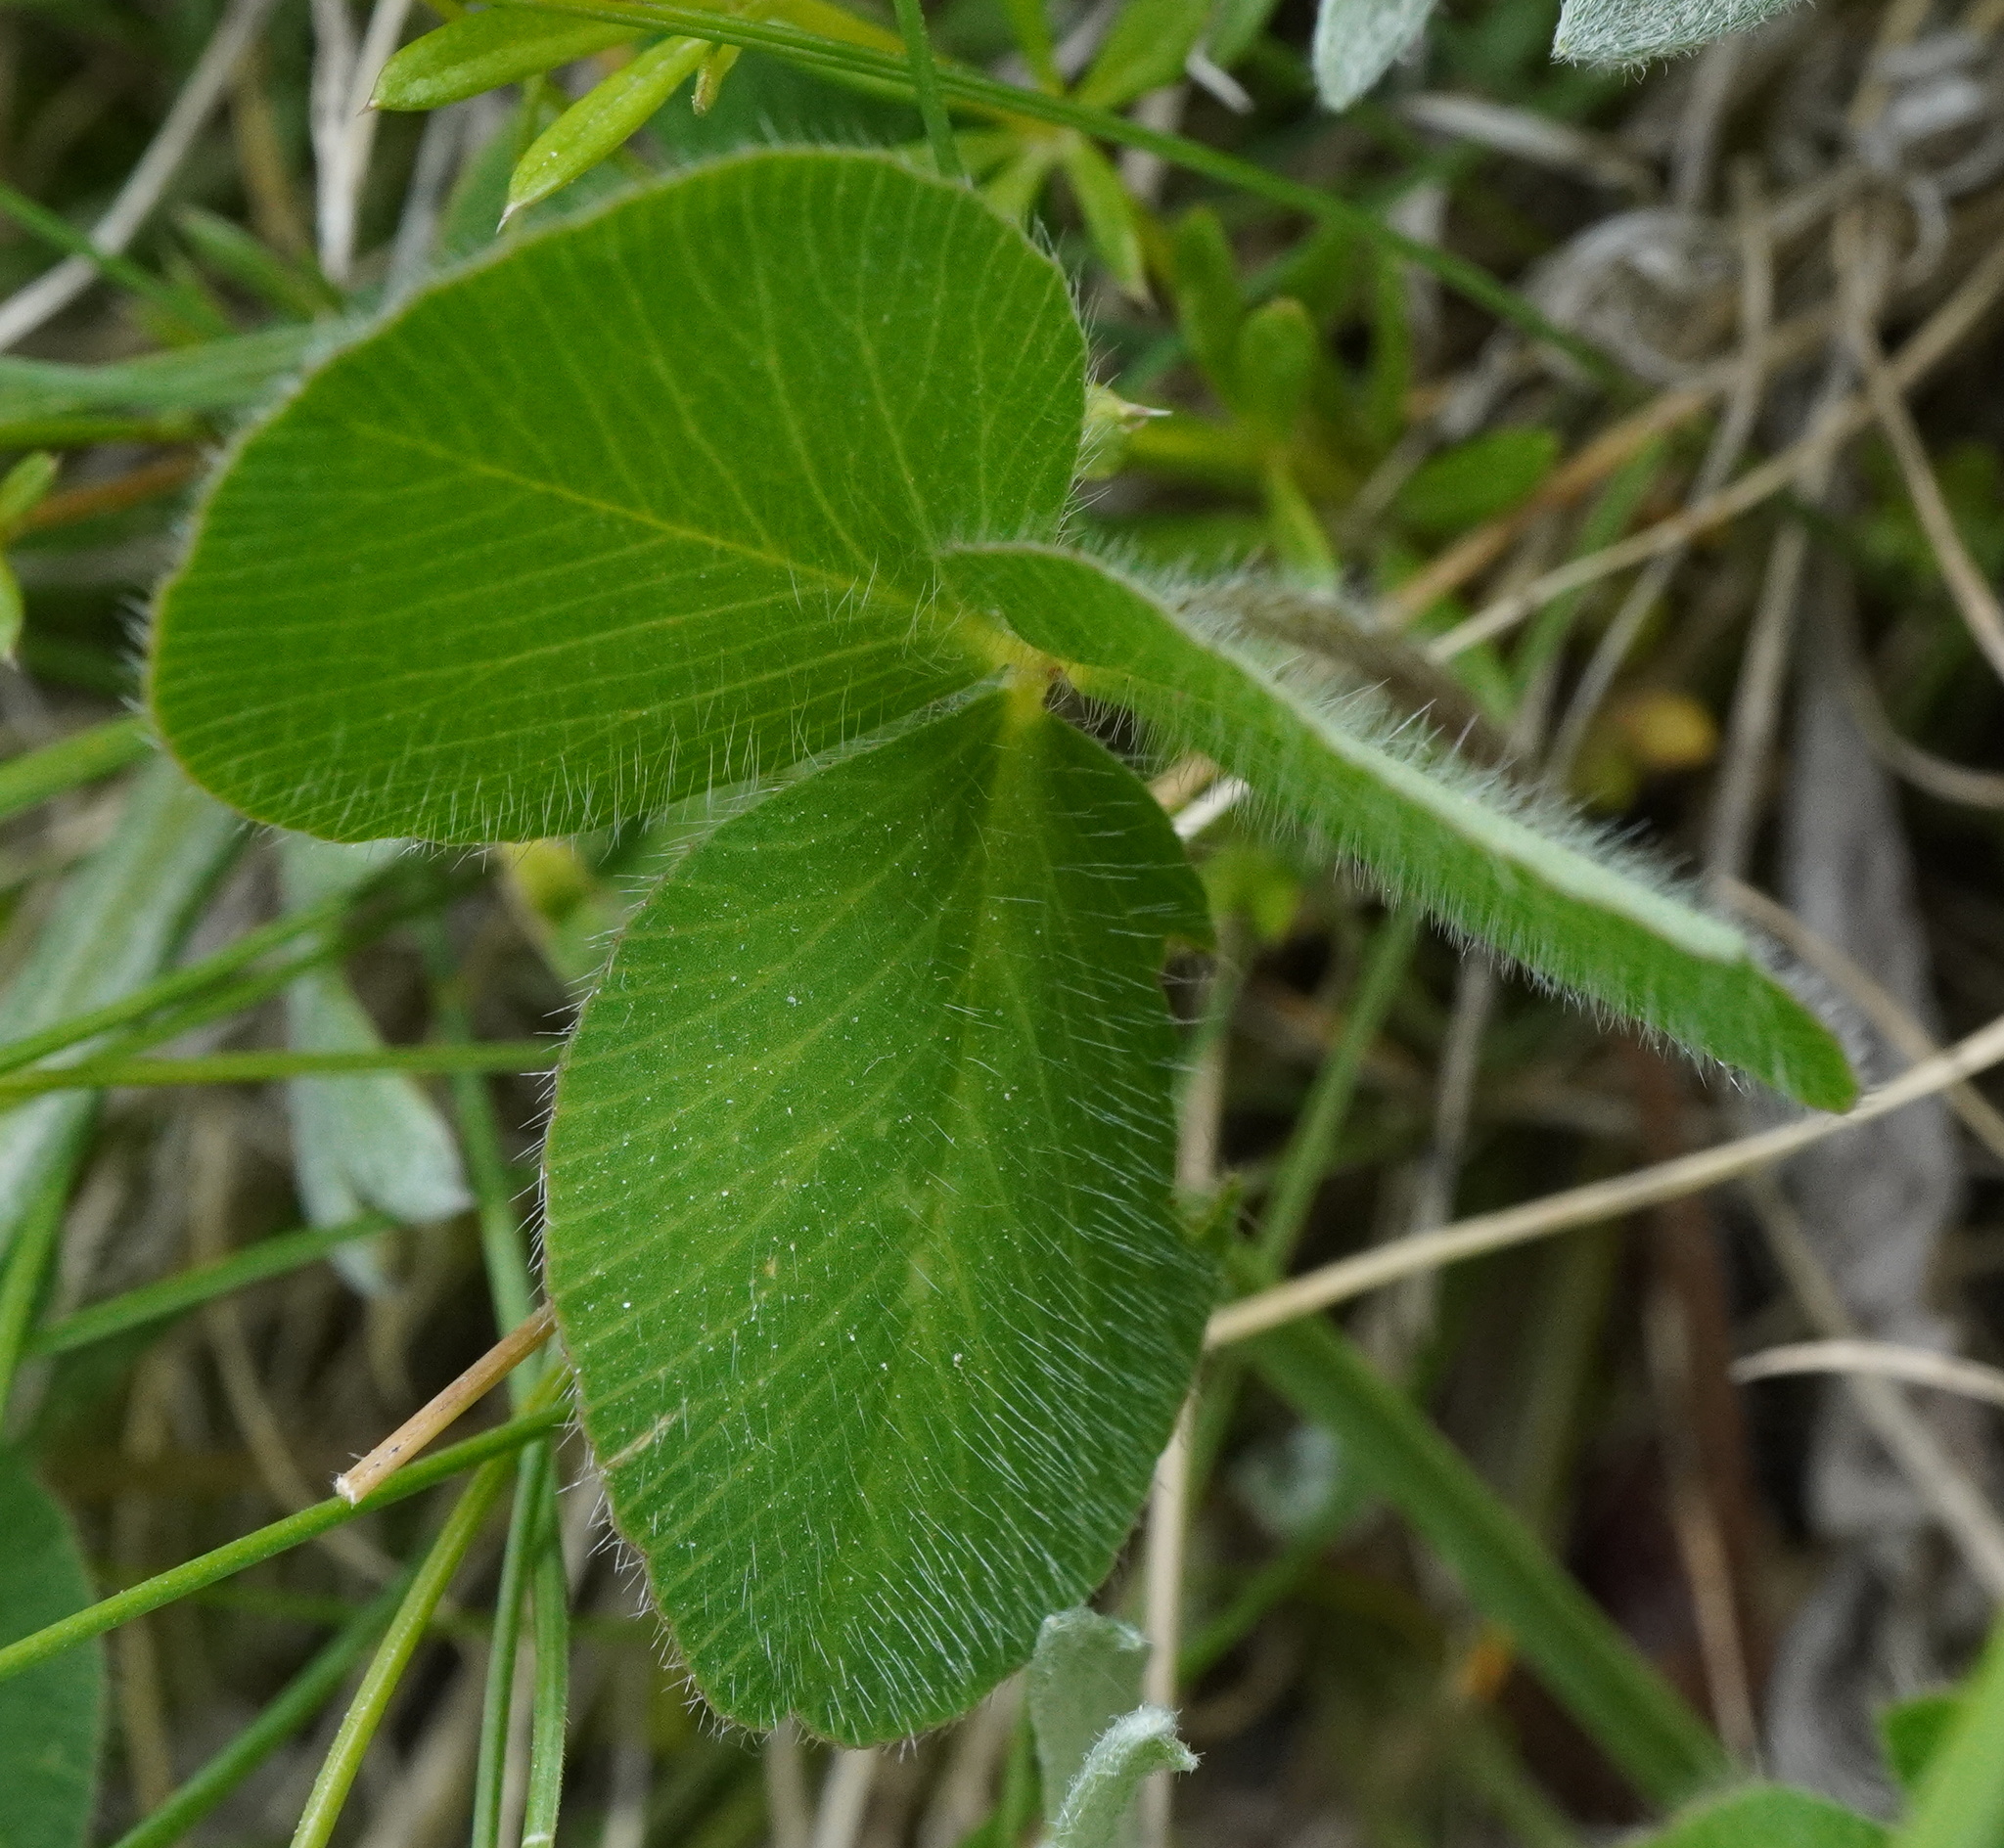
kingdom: Plantae
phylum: Tracheophyta
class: Magnoliopsida
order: Fabales
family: Fabaceae
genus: Trifolium
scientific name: Trifolium pratense
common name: Red clover
